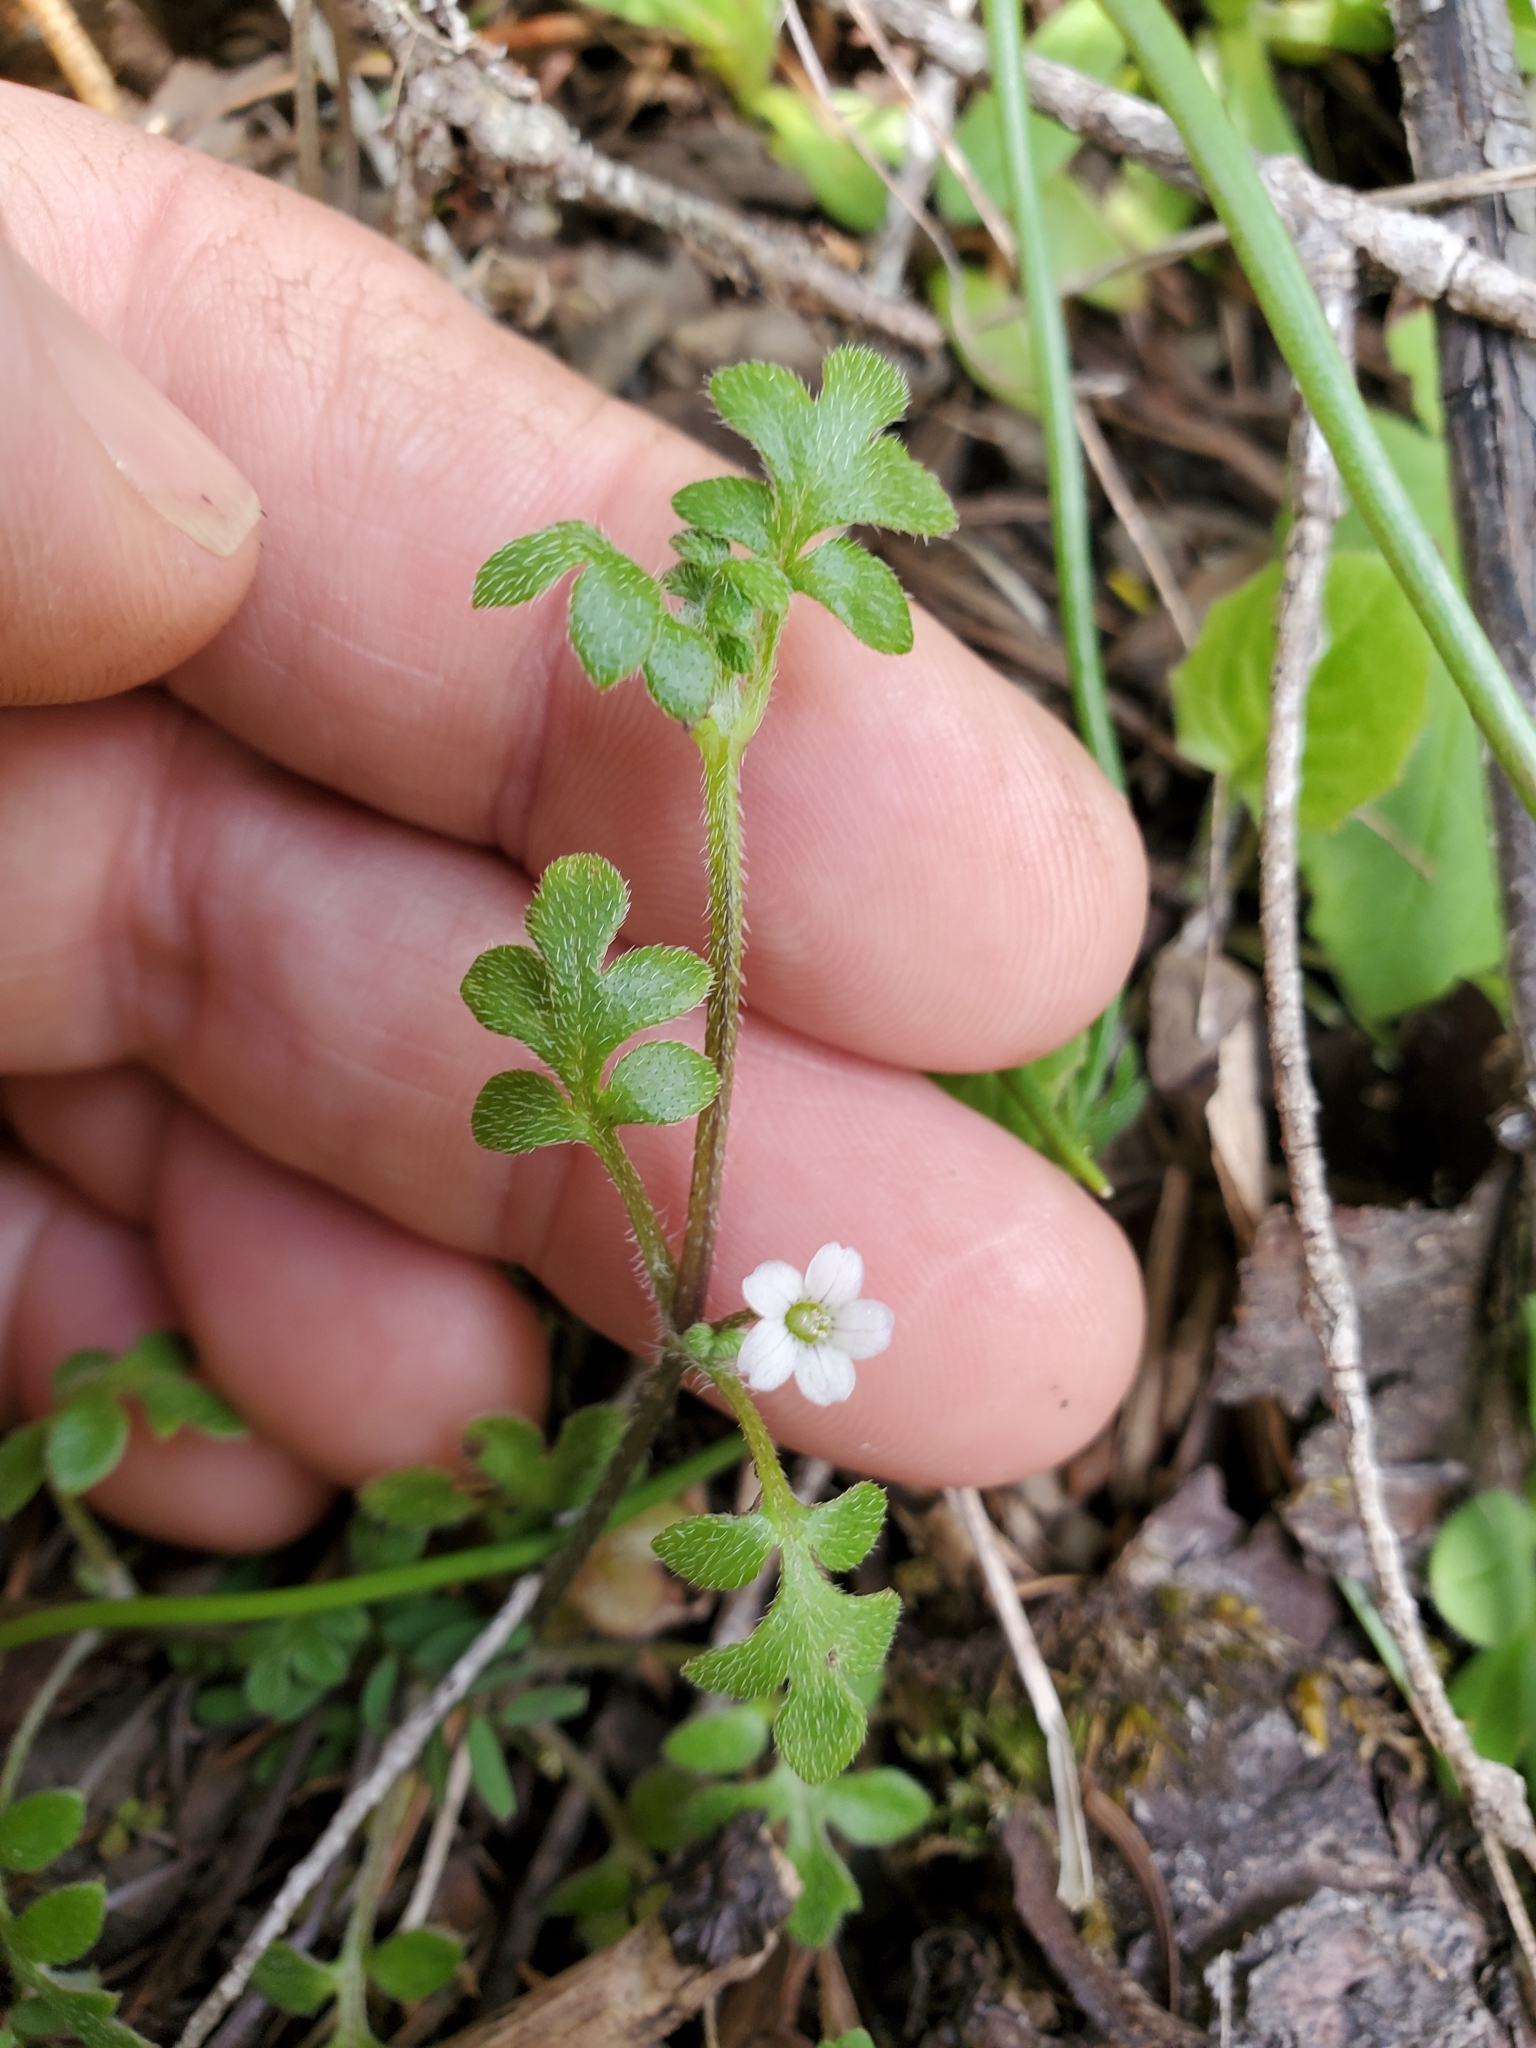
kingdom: Plantae
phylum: Tracheophyta
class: Magnoliopsida
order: Boraginales
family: Hydrophyllaceae
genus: Nemophila
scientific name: Nemophila parviflora
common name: Small-flowered baby-blue-eyes
